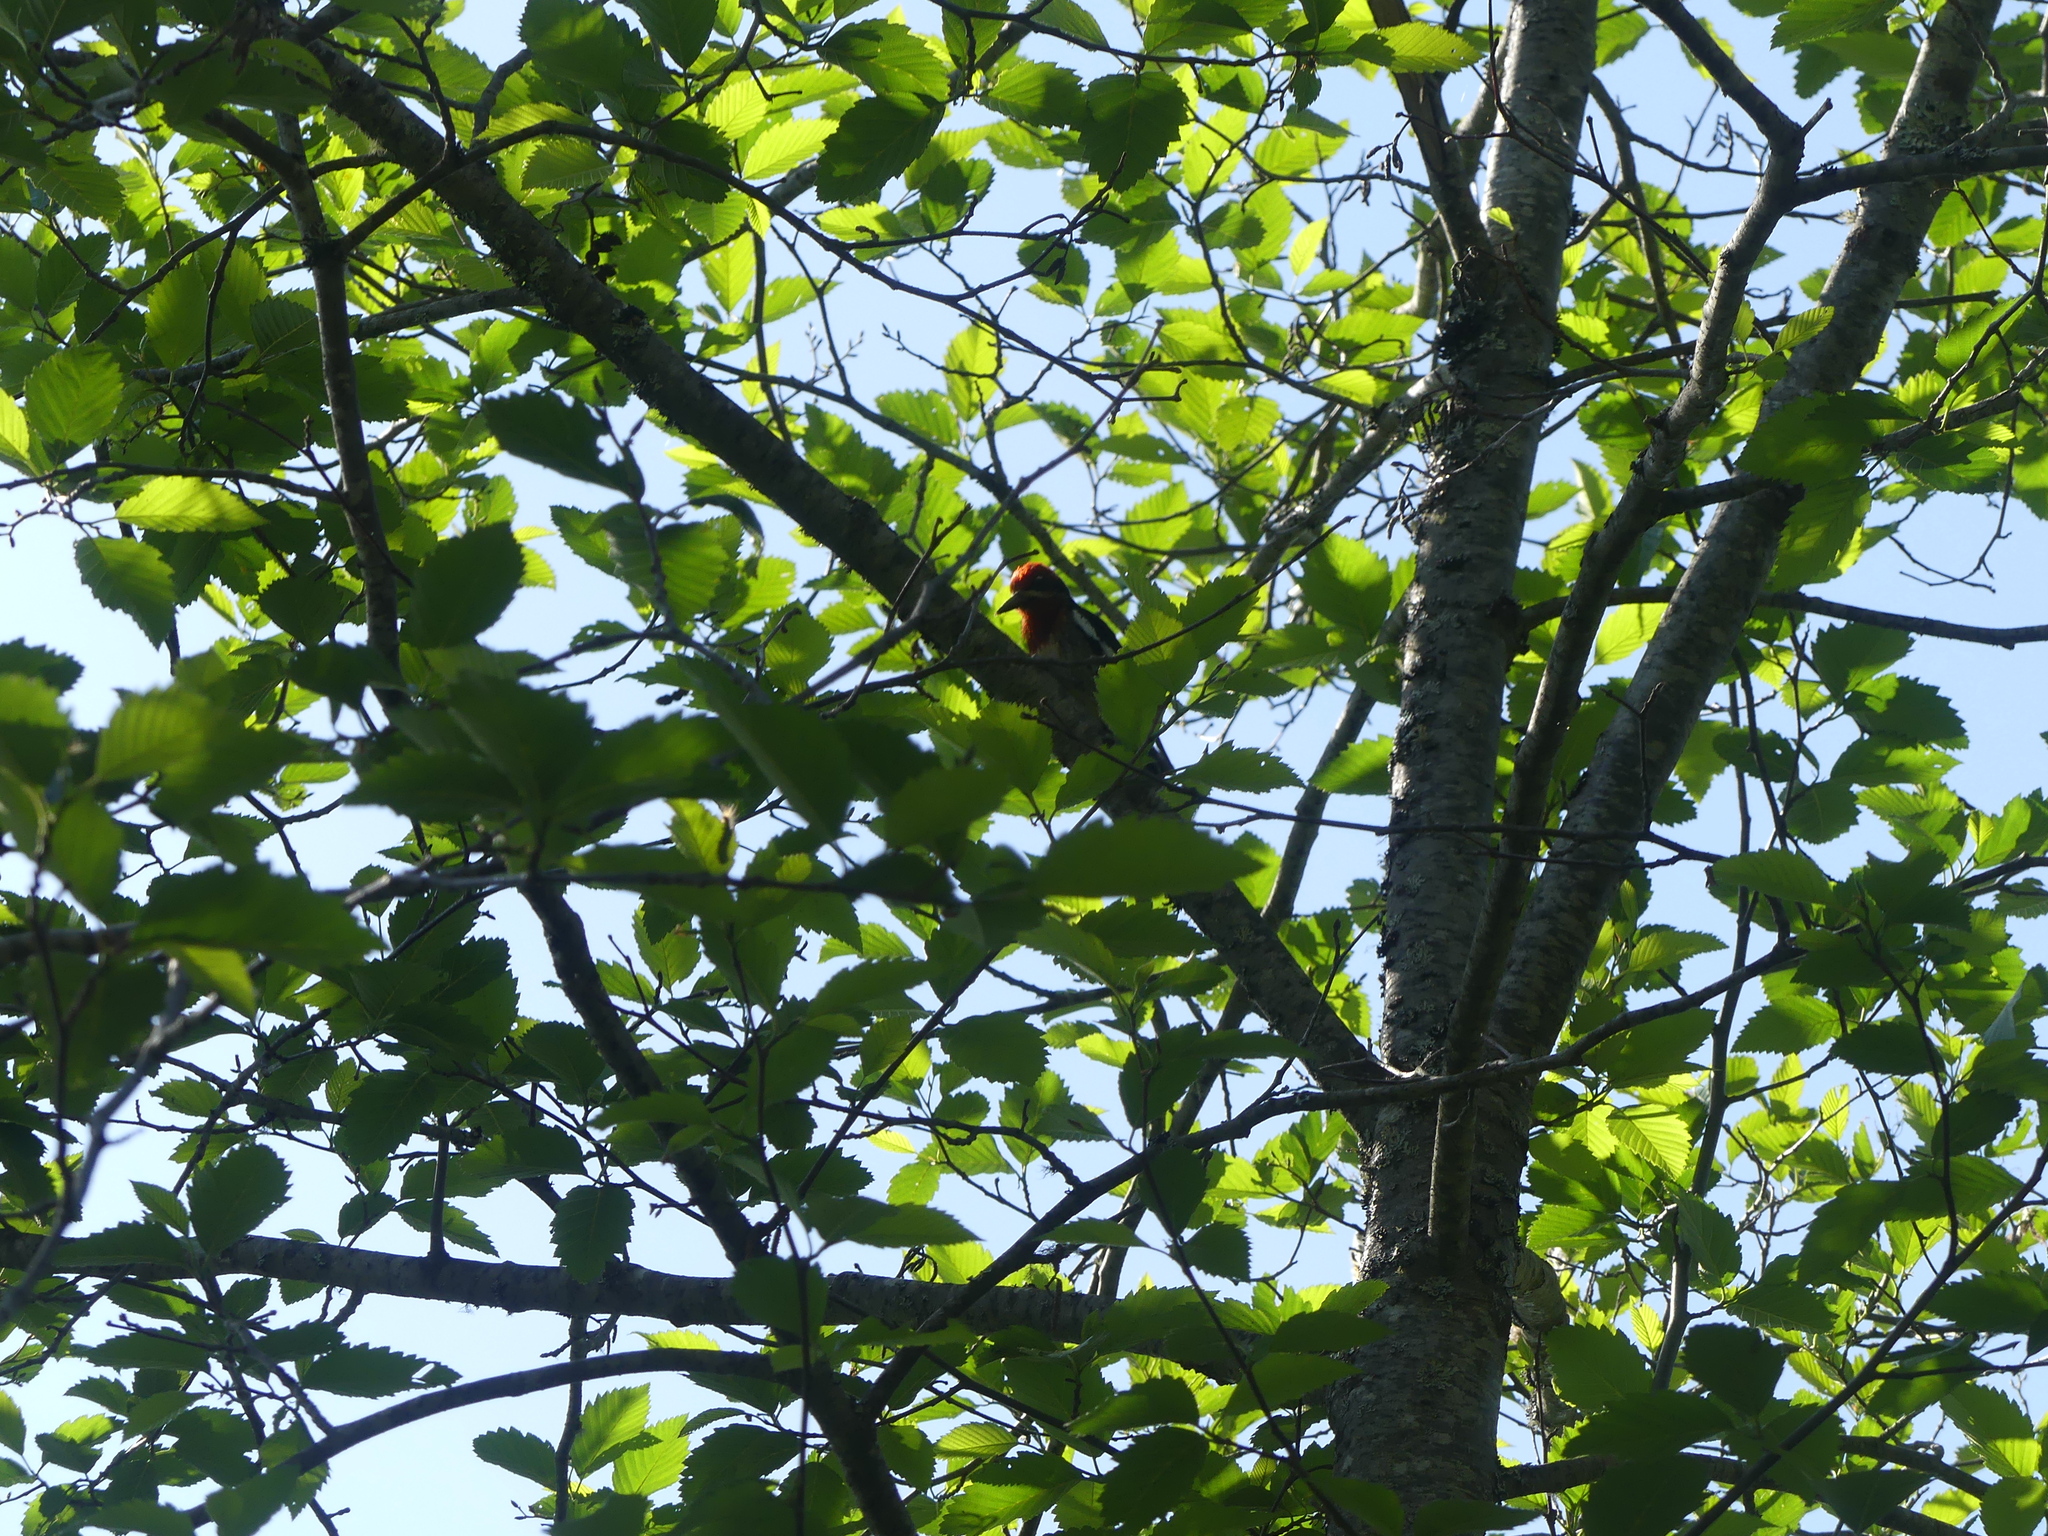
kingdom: Animalia
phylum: Chordata
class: Aves
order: Piciformes
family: Picidae
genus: Sphyrapicus
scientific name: Sphyrapicus ruber
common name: Red-breasted sapsucker
